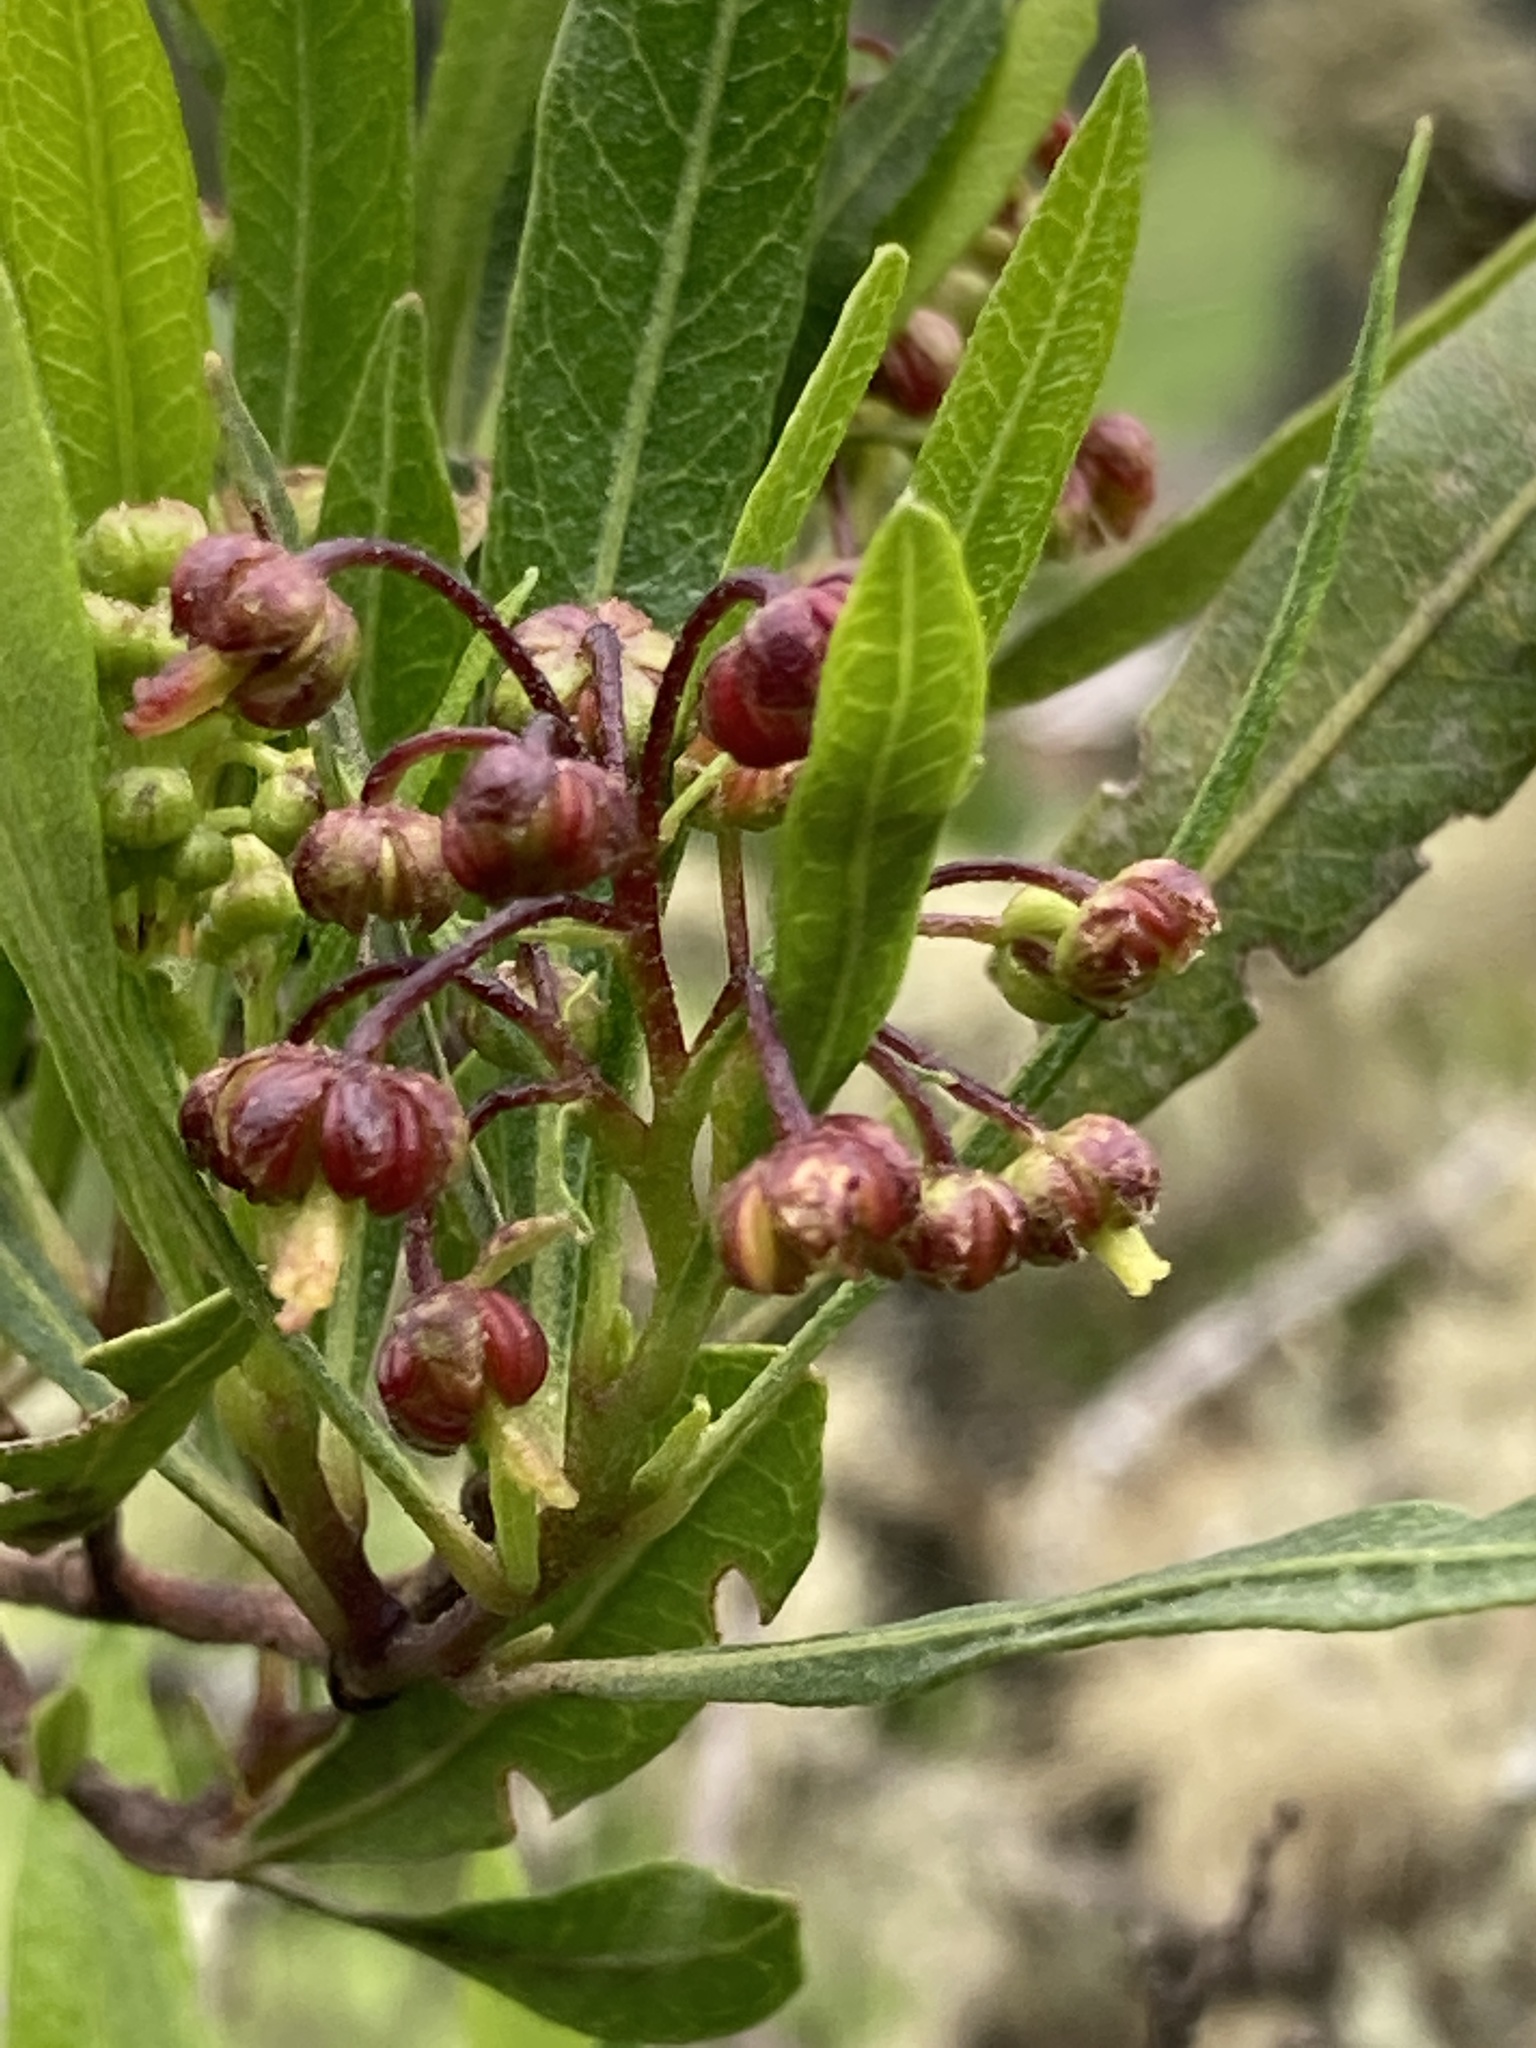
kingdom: Plantae
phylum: Tracheophyta
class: Magnoliopsida
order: Sapindales
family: Sapindaceae
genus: Dodonaea
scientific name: Dodonaea viscosa
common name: Hopbush
